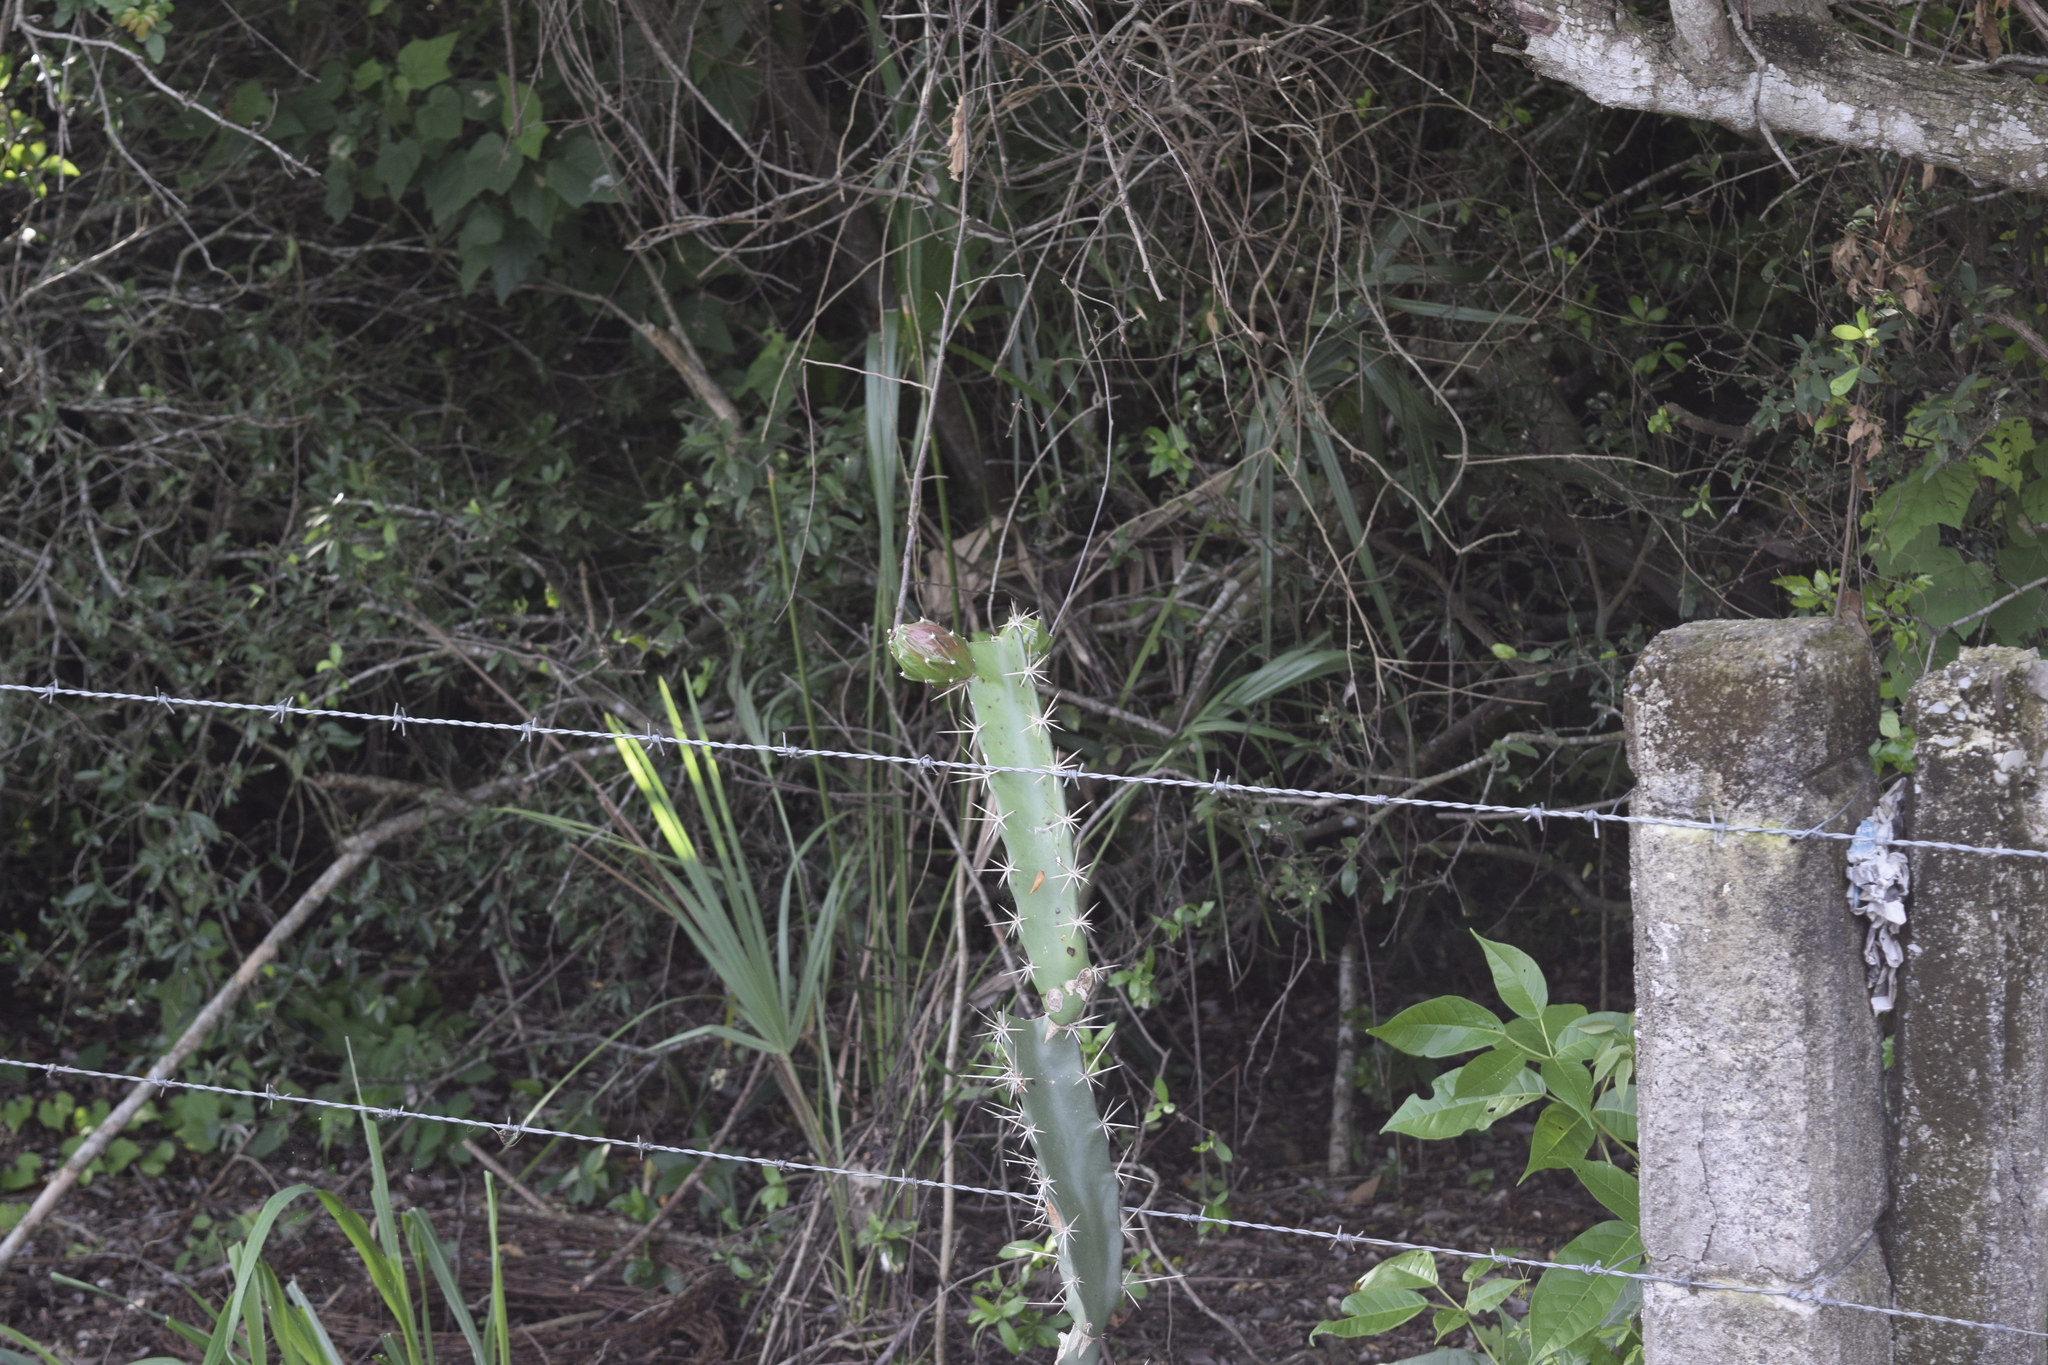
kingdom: Plantae
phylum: Tracheophyta
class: Magnoliopsida
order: Caryophyllales
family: Cactaceae
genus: Acanthocereus
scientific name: Acanthocereus tetragonus
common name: Triangle cactus
